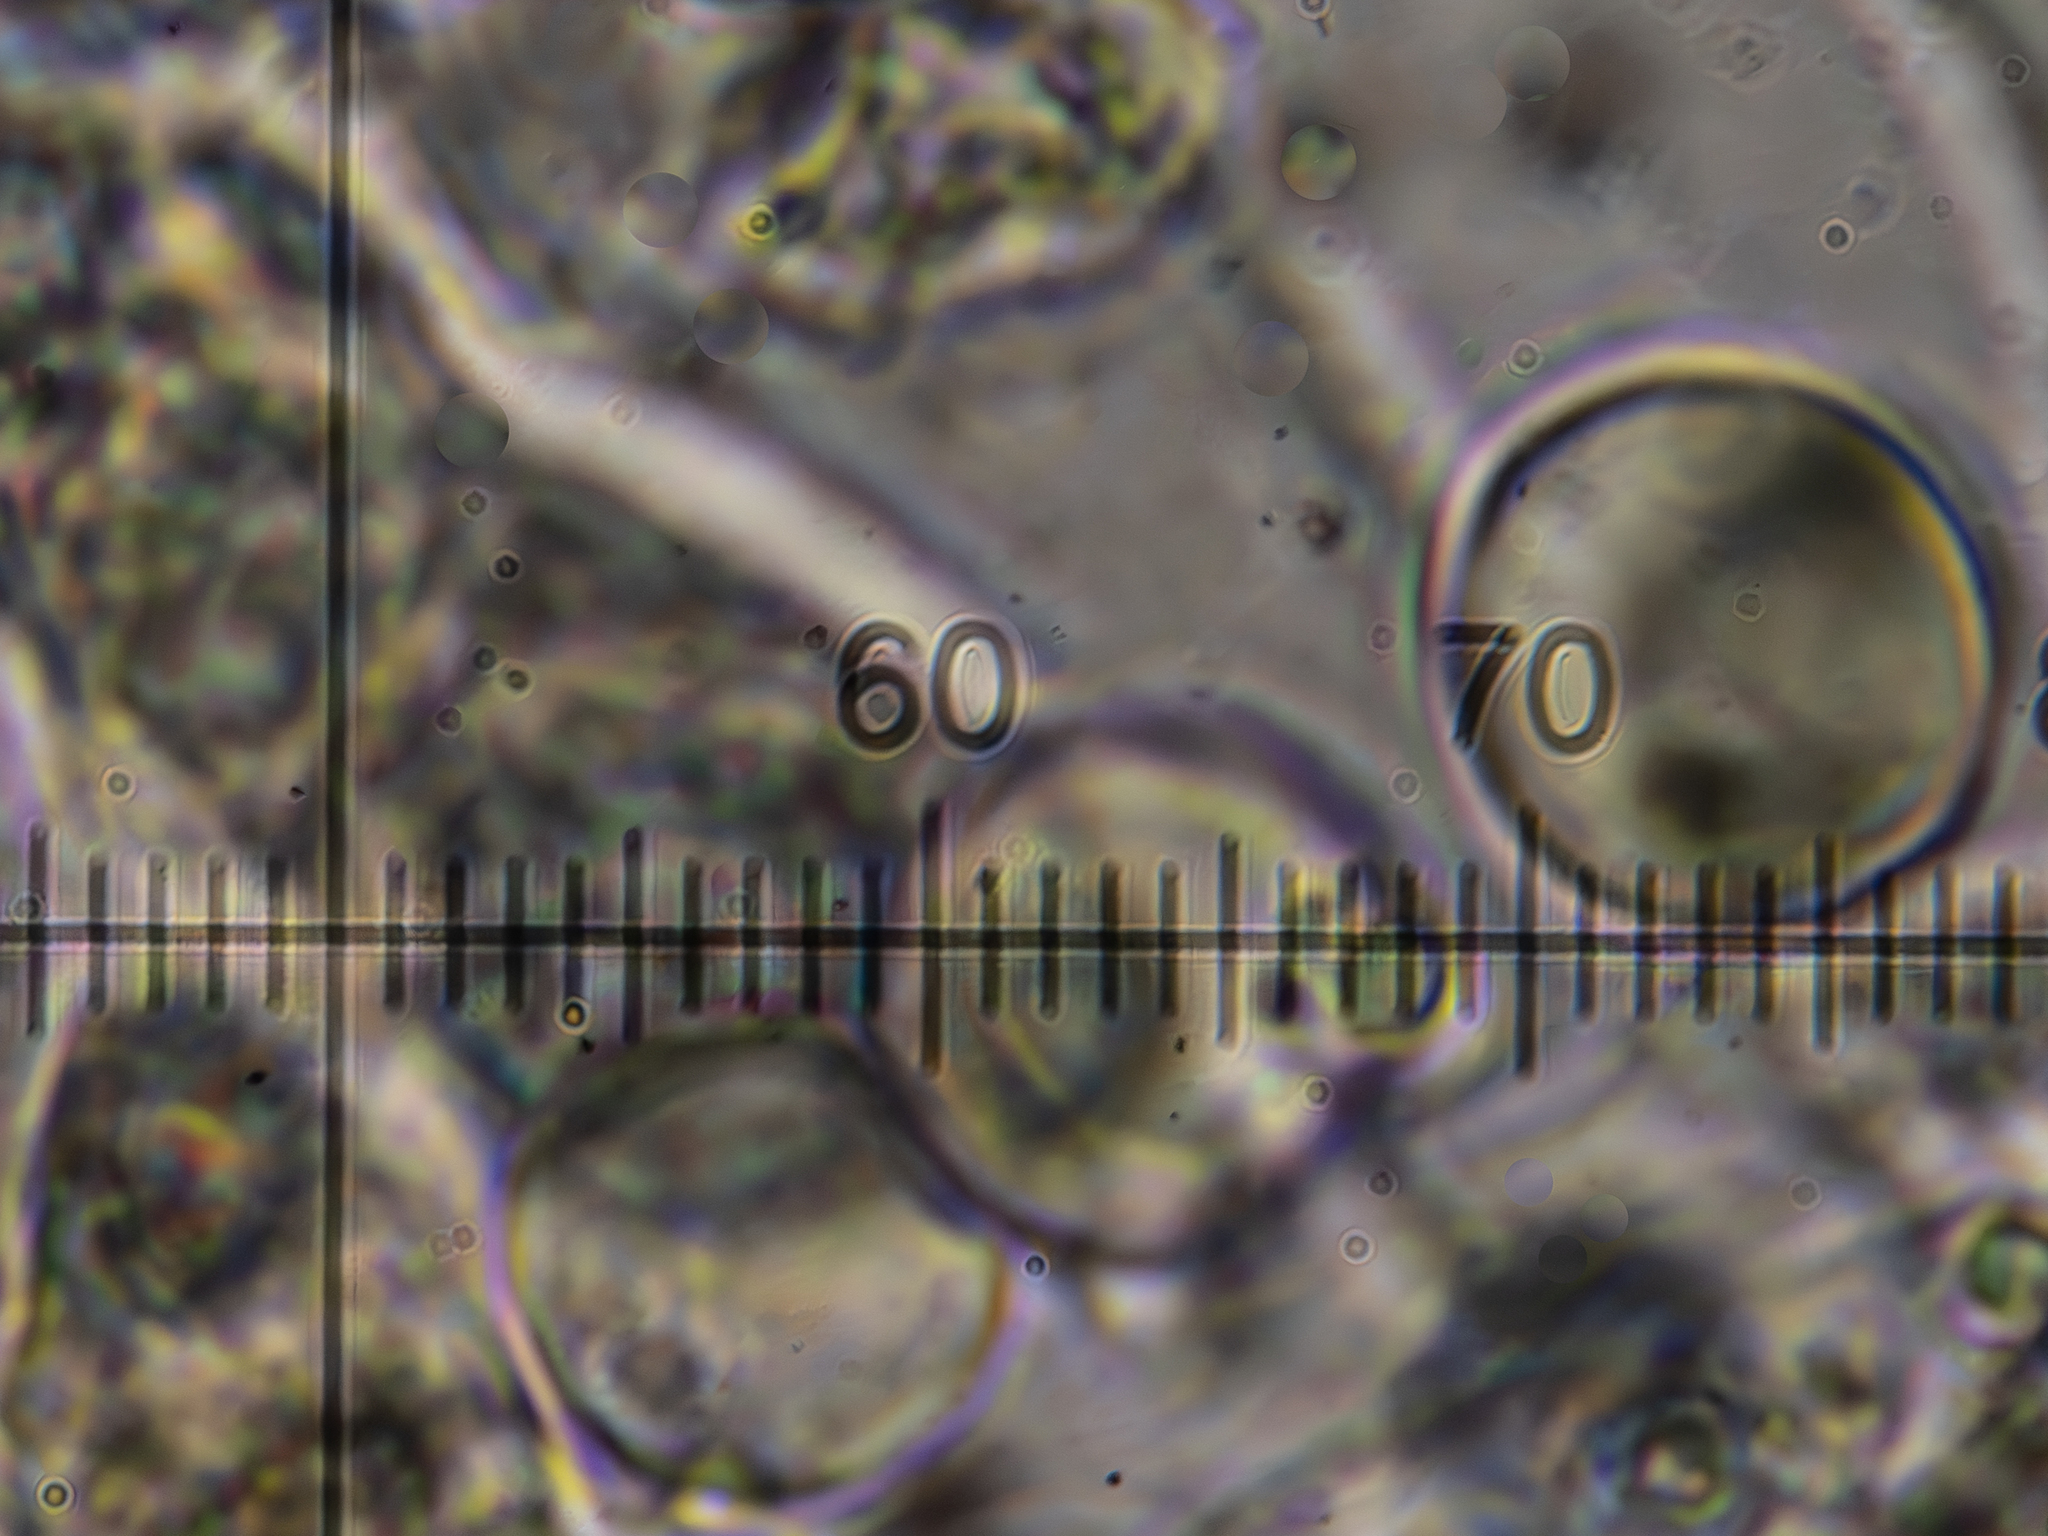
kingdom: Fungi
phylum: Basidiomycota
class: Agaricomycetes
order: Cantharellales
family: Hydnaceae
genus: Hydnum
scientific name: Hydnum umbilicatum
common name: Umbilicate hedgehog
